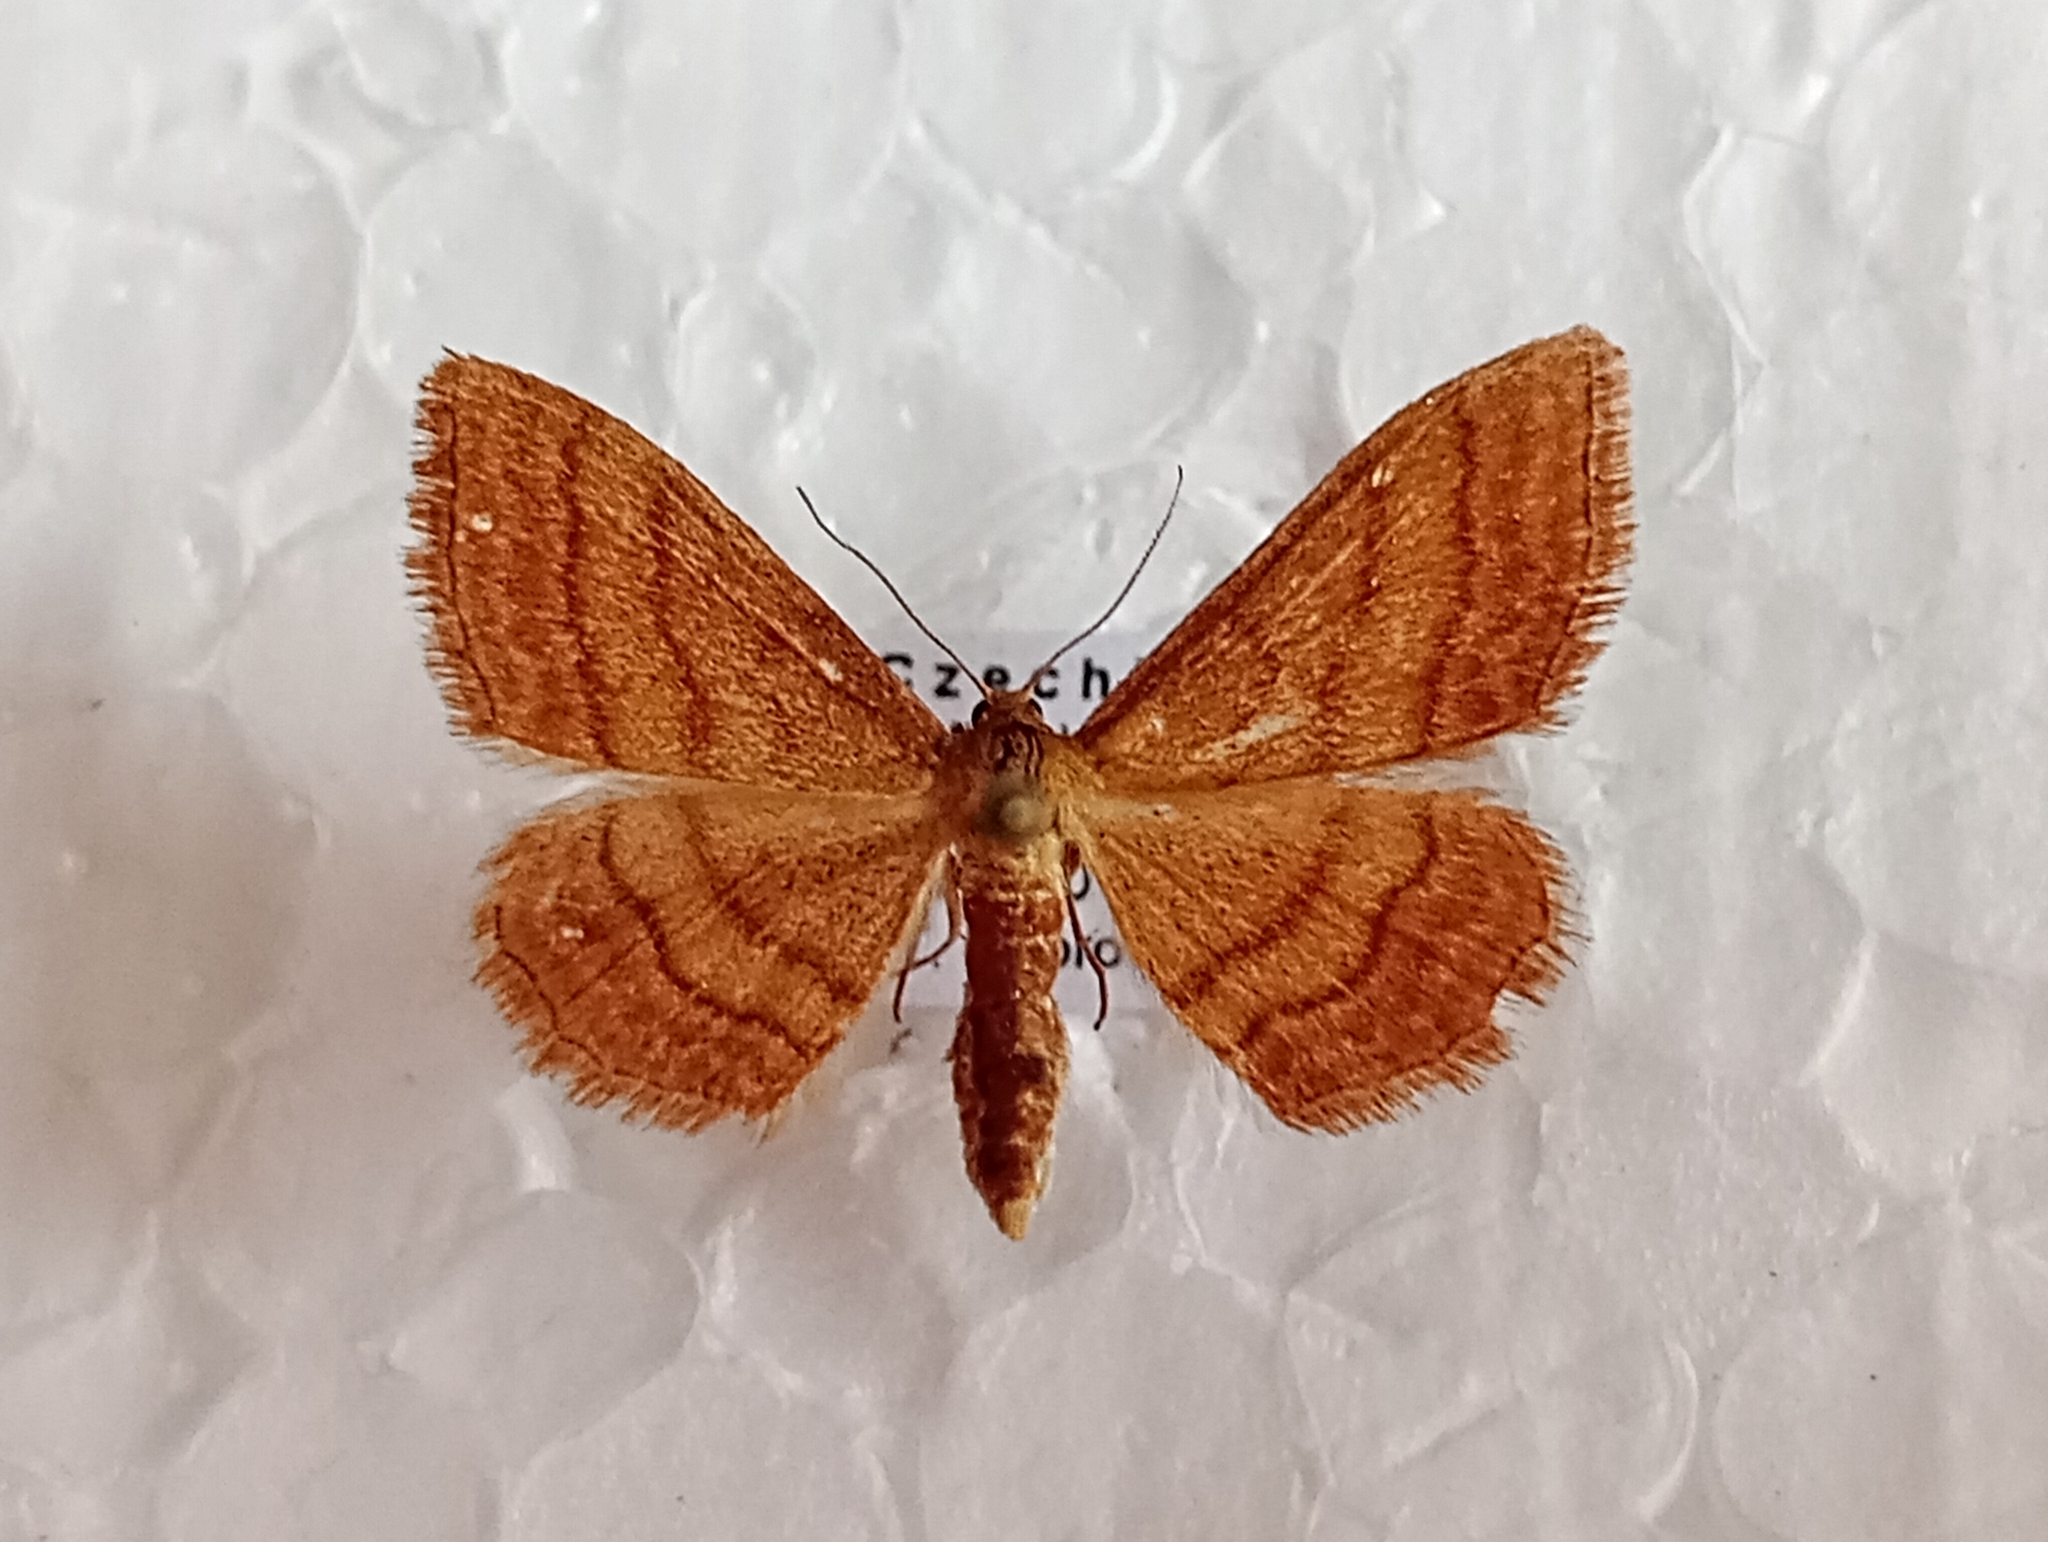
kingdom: Animalia
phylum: Arthropoda
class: Insecta
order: Lepidoptera
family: Geometridae
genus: Idaea
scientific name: Idaea ochrata
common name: Bright wave
